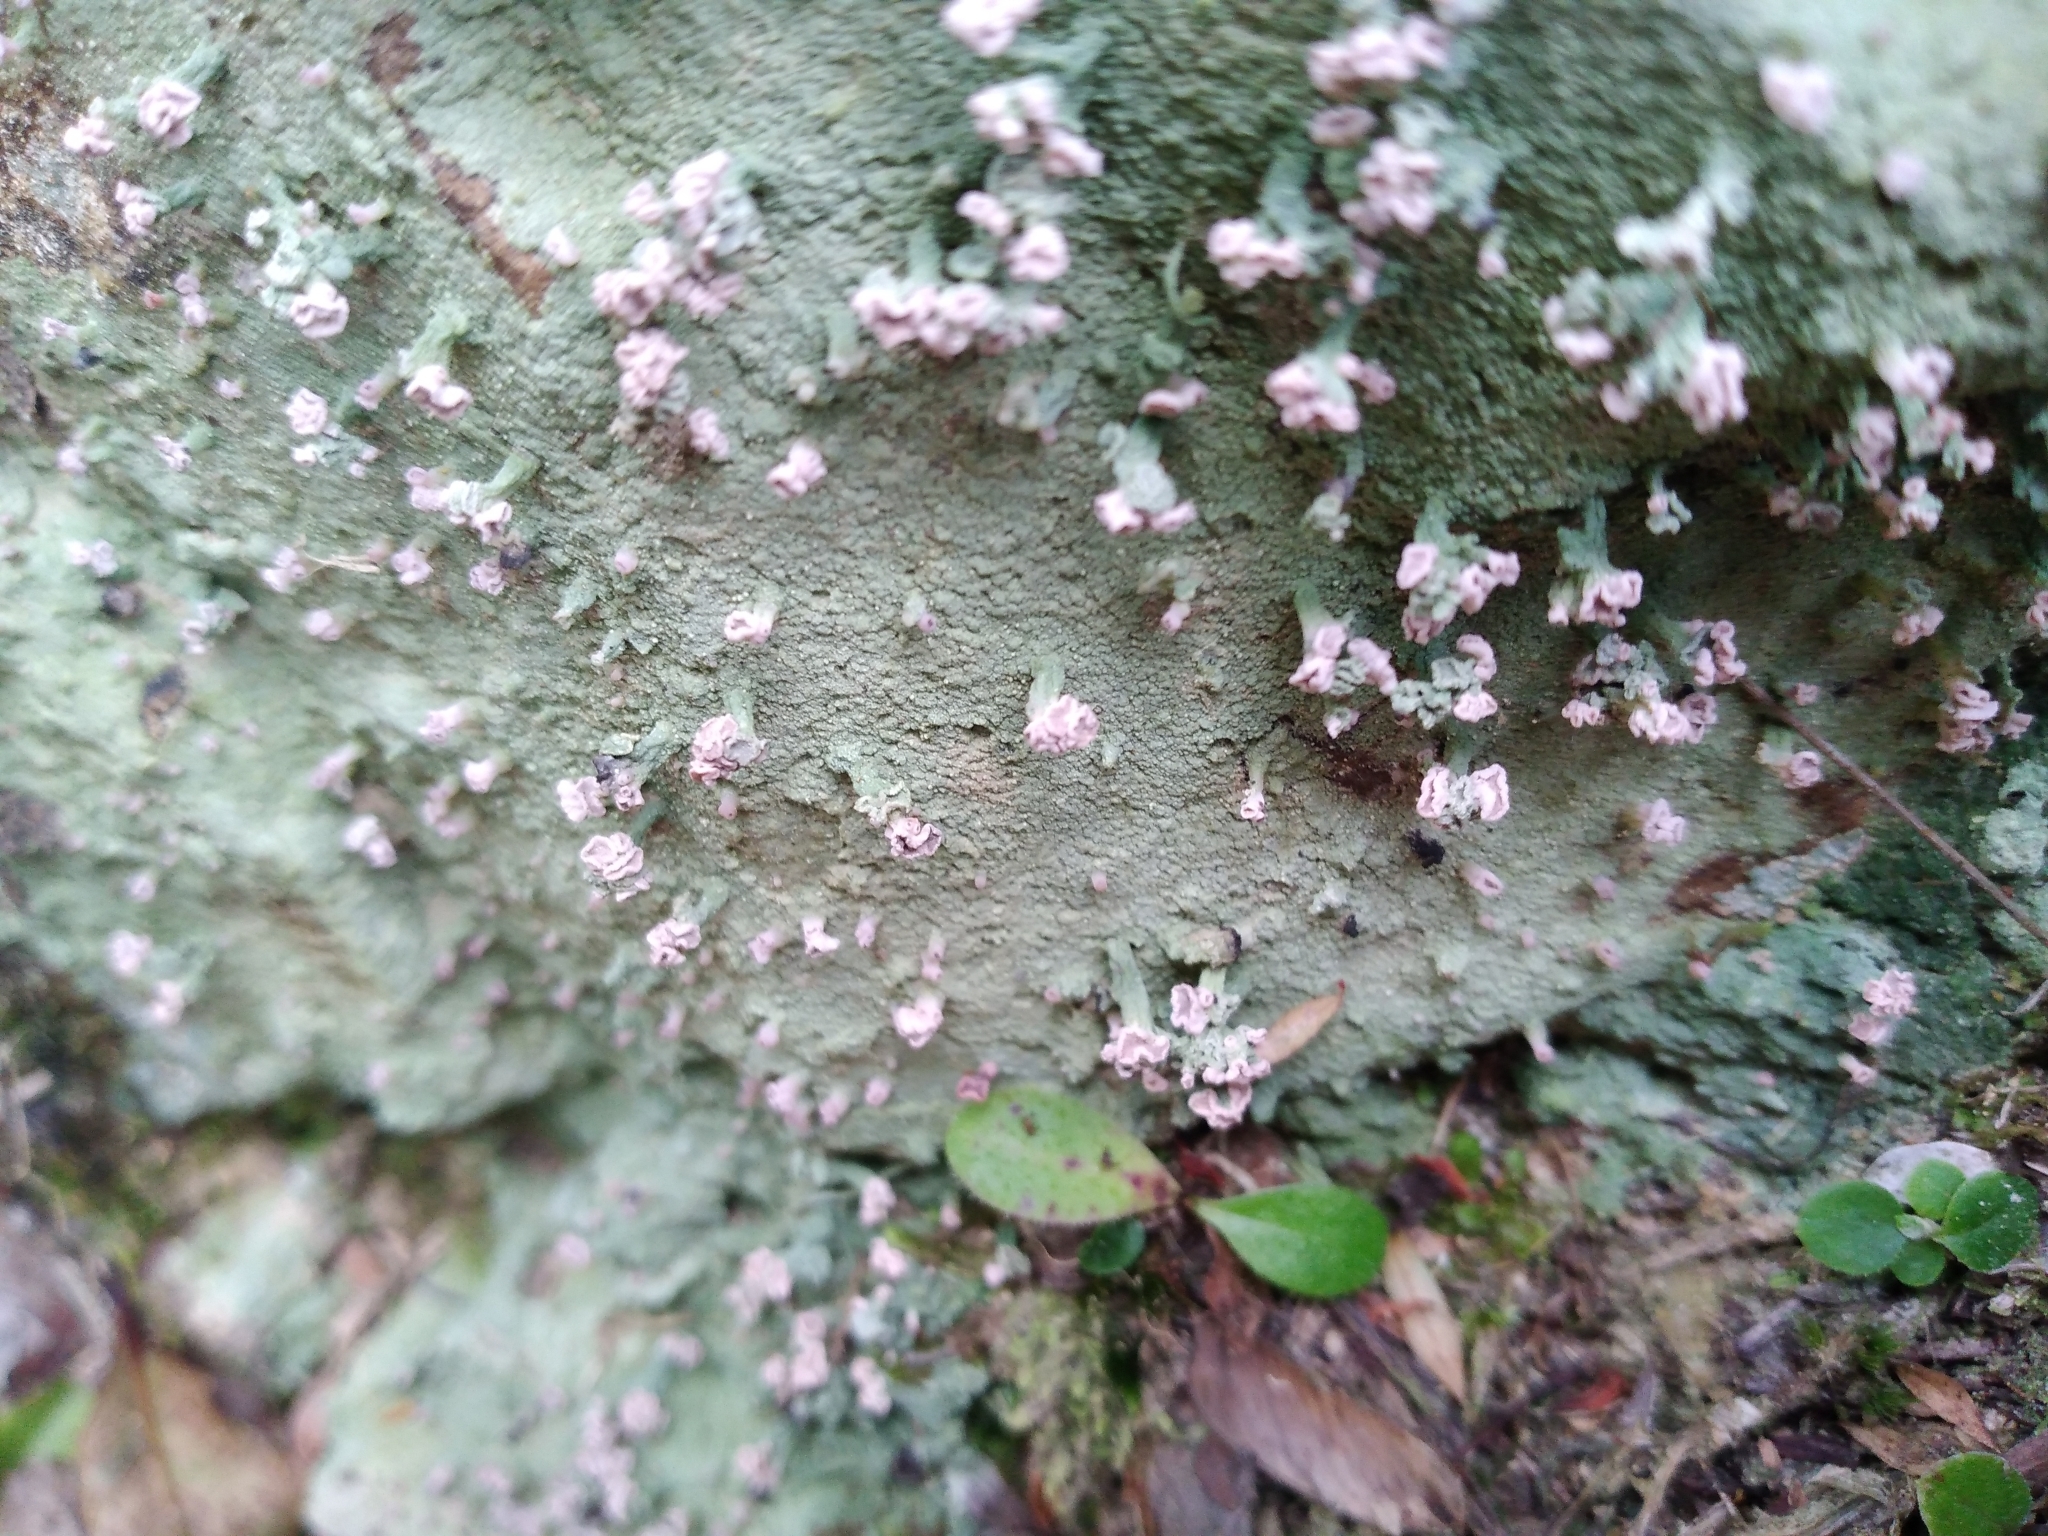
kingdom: Fungi
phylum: Ascomycota
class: Lecanoromycetes
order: Baeomycetales
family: Baeomycetaceae
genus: Baeomyces
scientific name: Baeomyces heteromorphus
